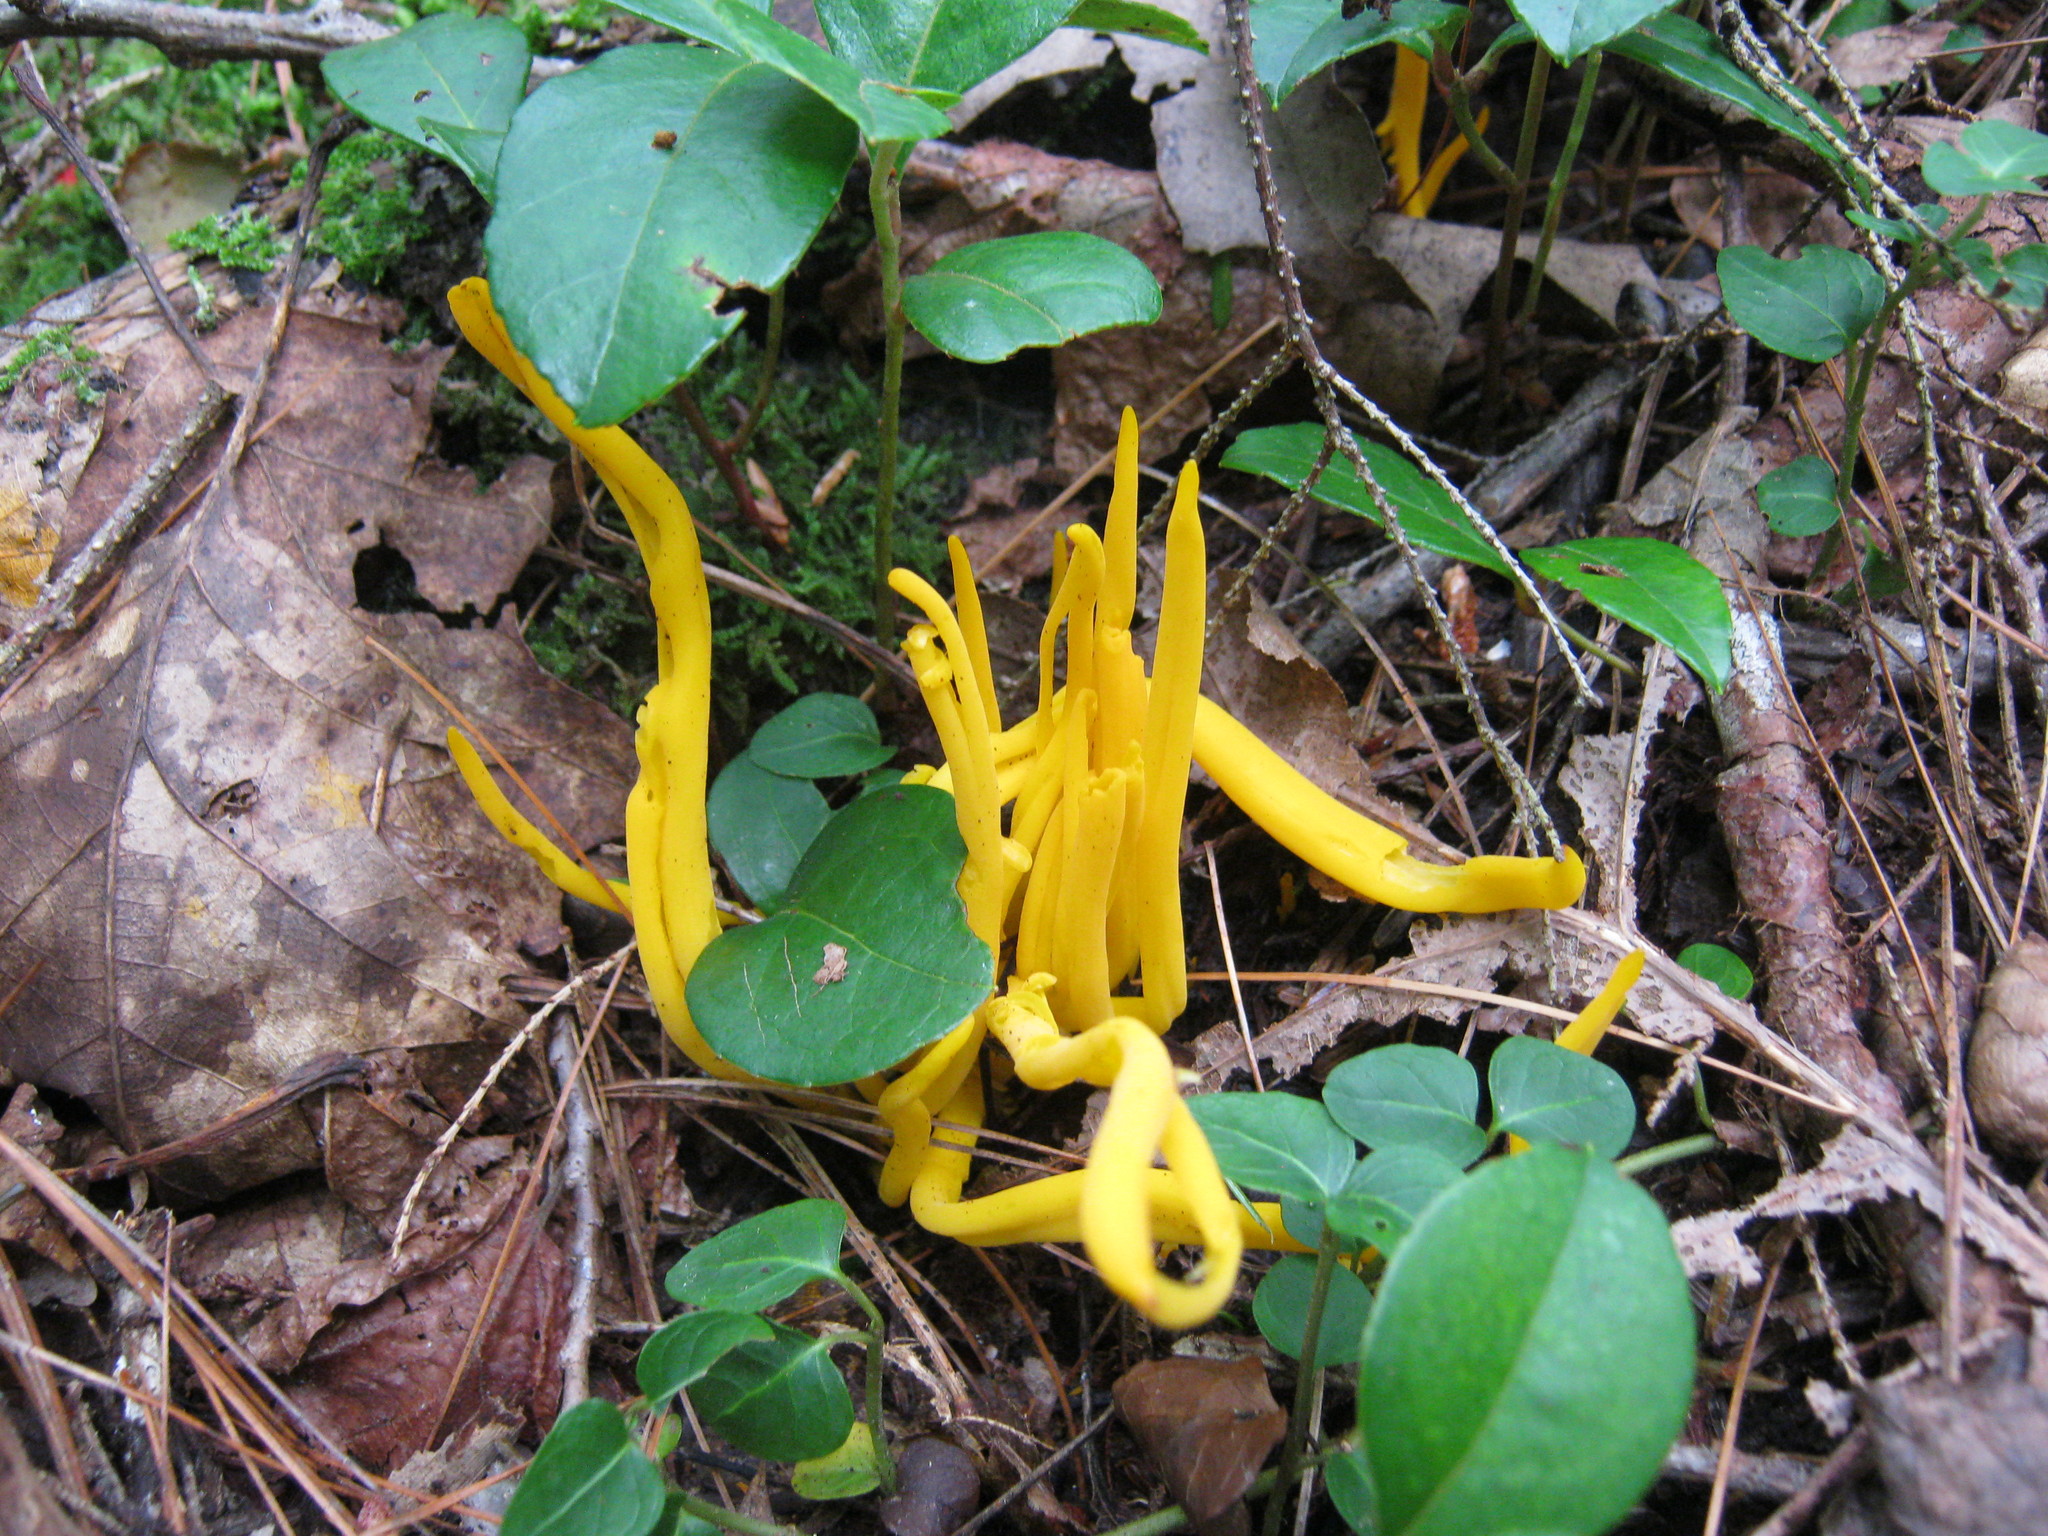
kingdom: Fungi
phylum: Basidiomycota
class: Agaricomycetes
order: Agaricales
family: Clavariaceae
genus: Clavulinopsis
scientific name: Clavulinopsis fusiformis
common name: Golden spindles
